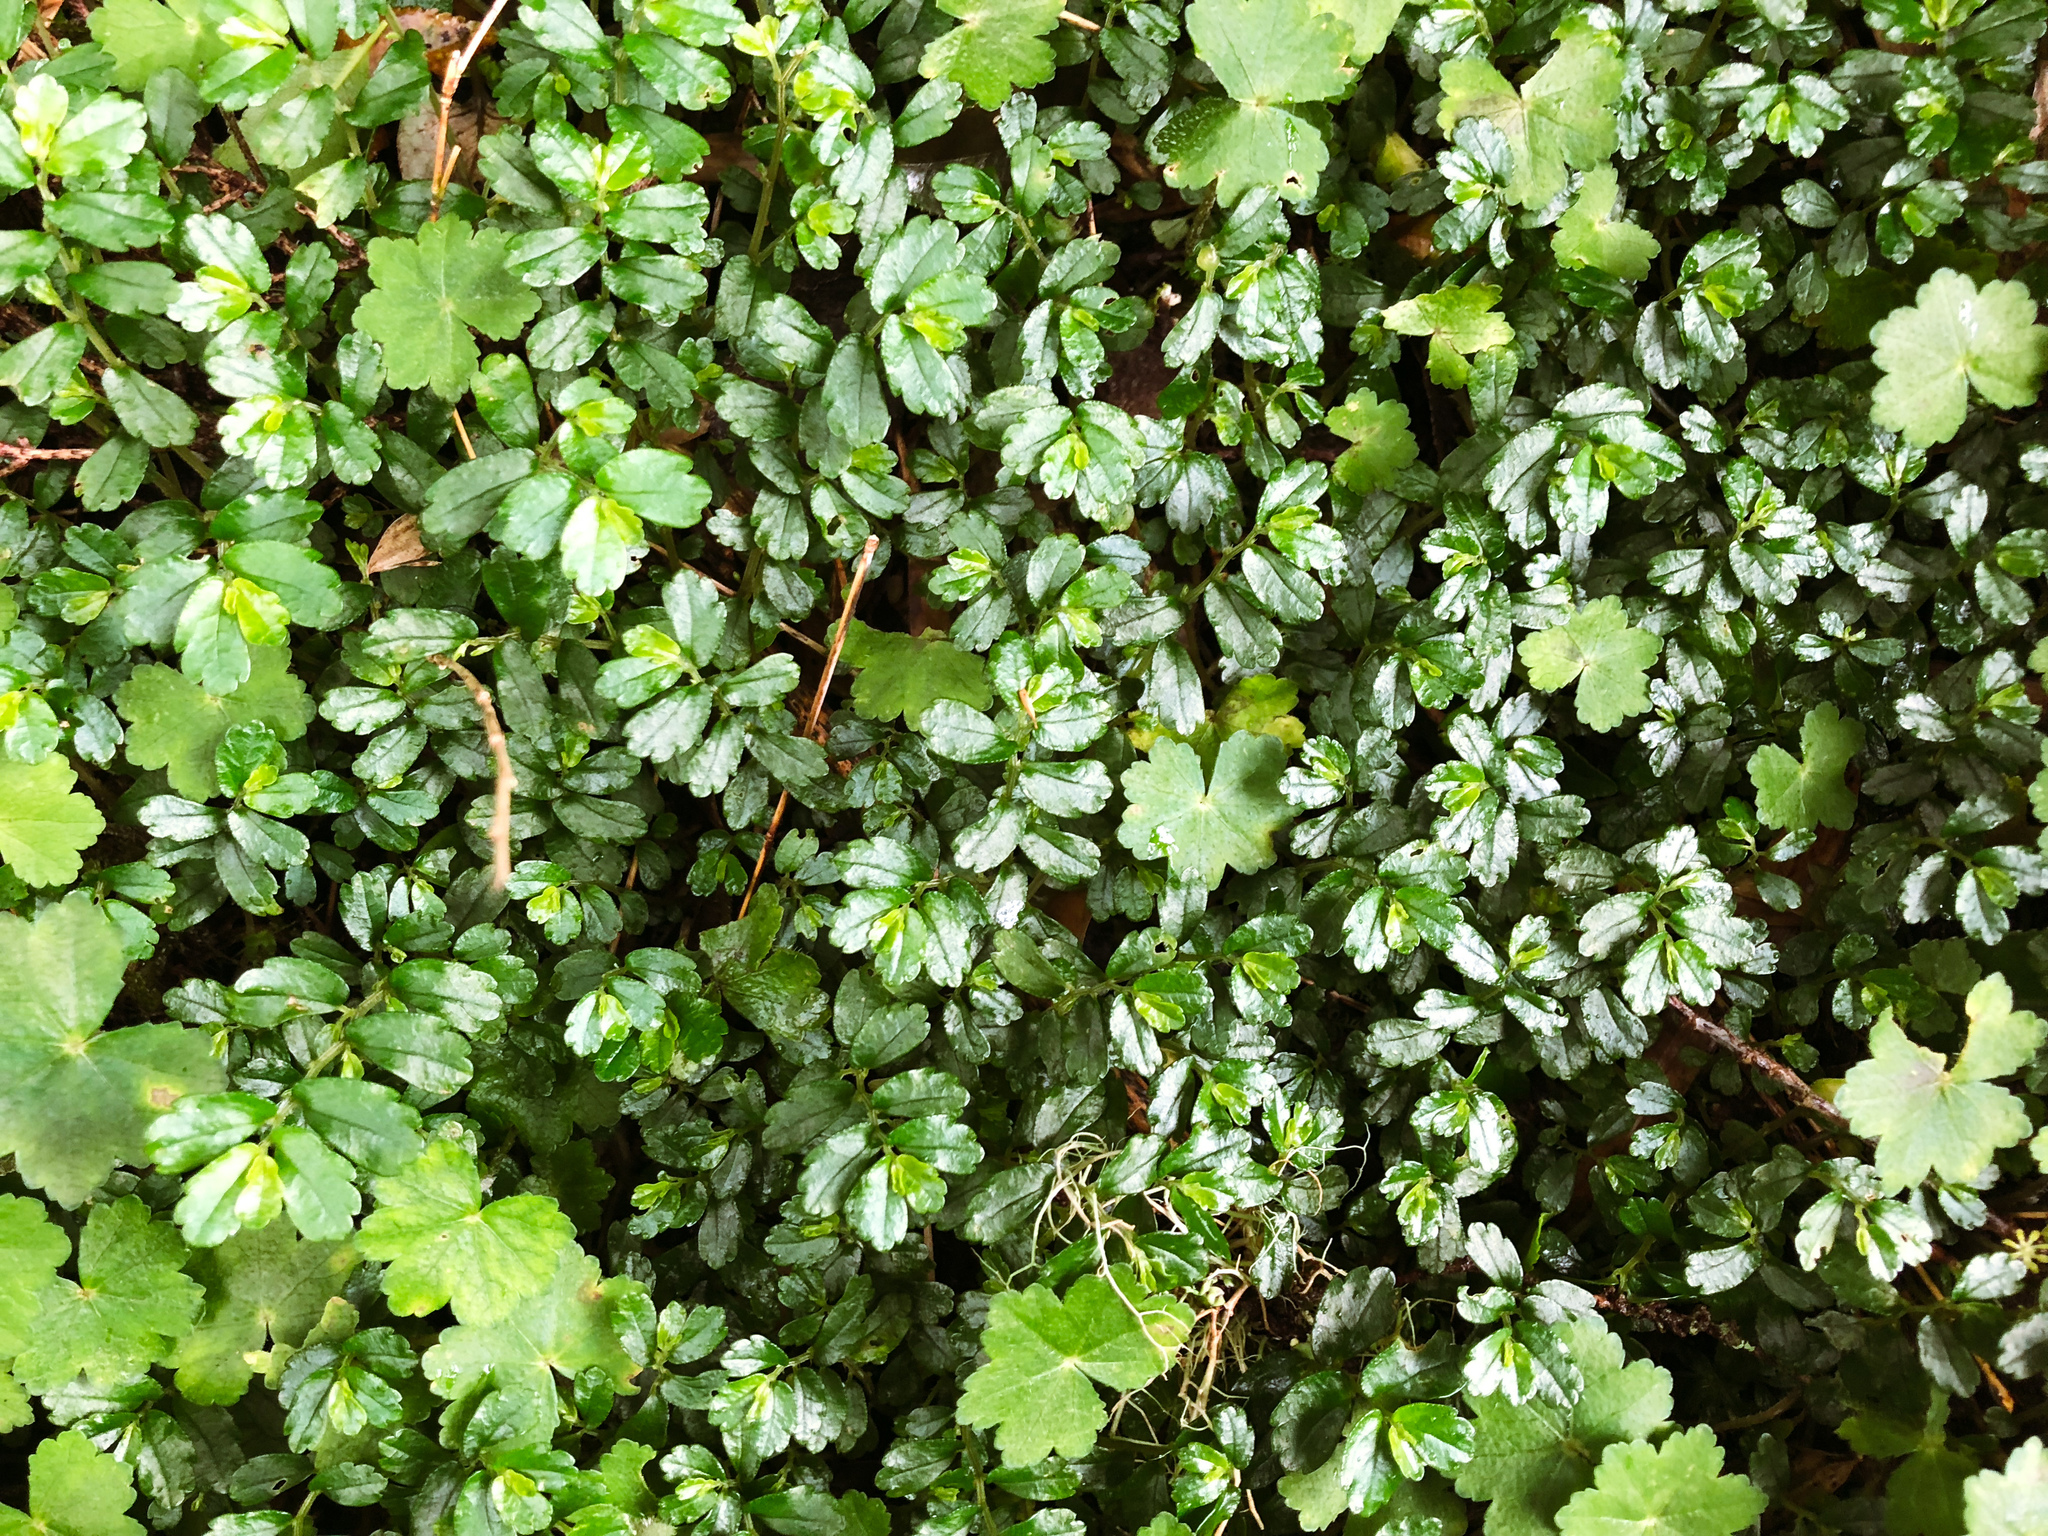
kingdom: Plantae
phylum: Tracheophyta
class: Magnoliopsida
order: Rosales
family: Urticaceae
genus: Elatostema
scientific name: Elatostema obtusum
